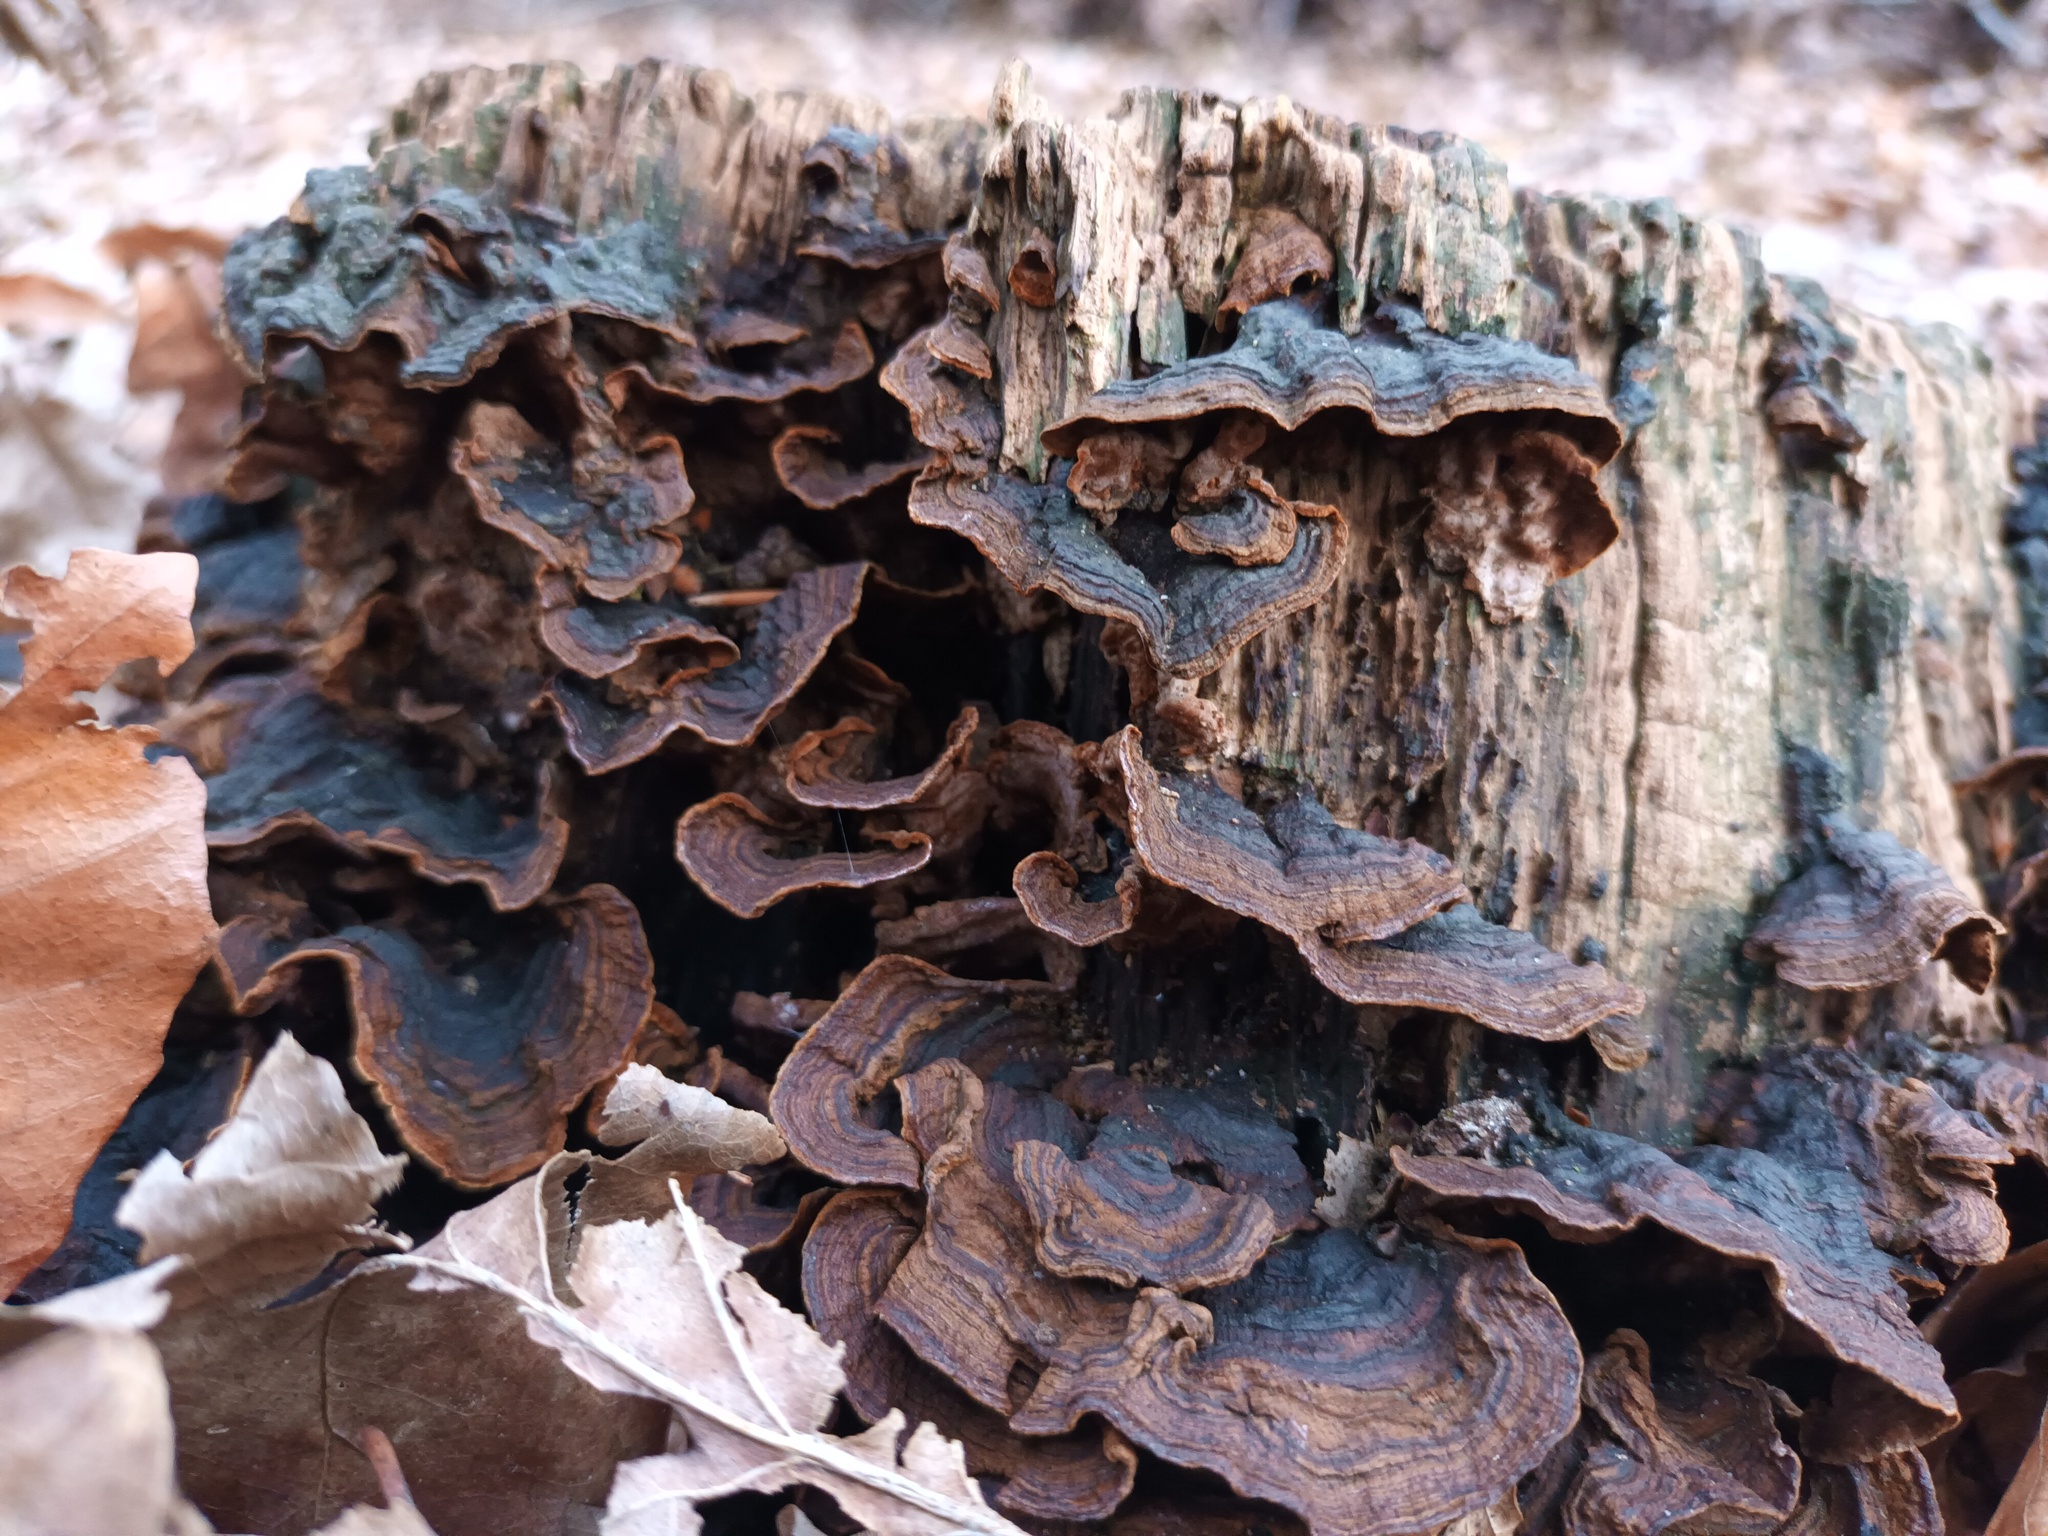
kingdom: Fungi
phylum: Basidiomycota
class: Agaricomycetes
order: Hymenochaetales
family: Hymenochaetaceae
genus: Hymenochaete
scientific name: Hymenochaete rubiginosa
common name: Oak curtain crust
